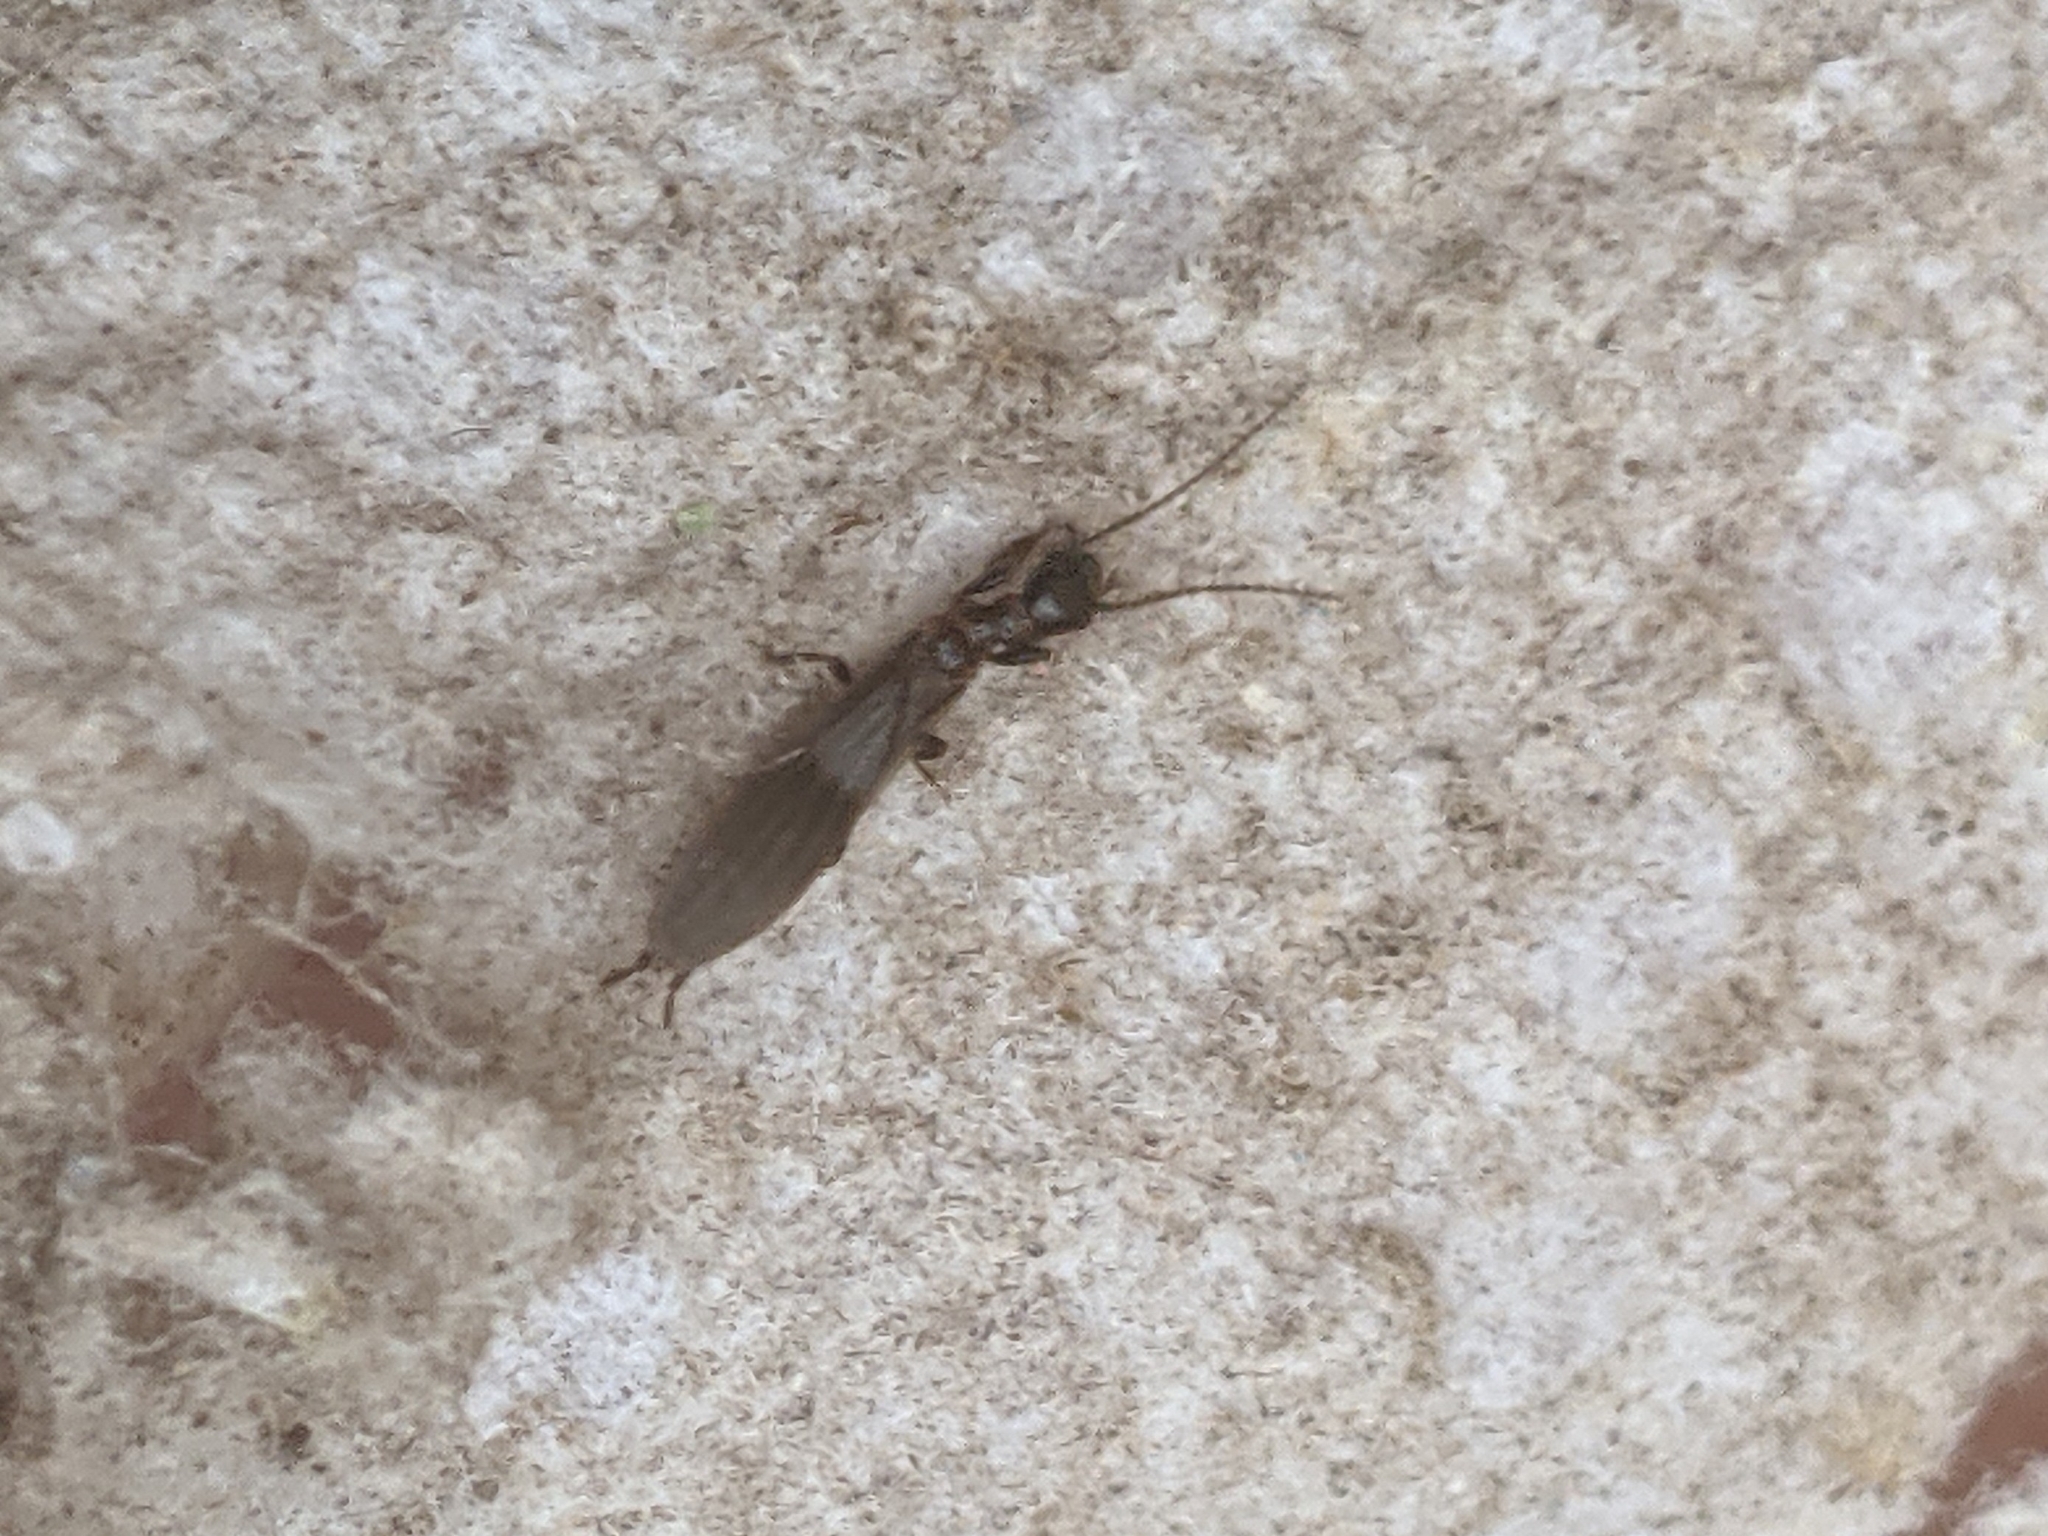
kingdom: Animalia
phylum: Arthropoda
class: Insecta
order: Embioptera
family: Oligotomidae
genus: Oligotoma
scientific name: Oligotoma nigra
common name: Black webspinner
